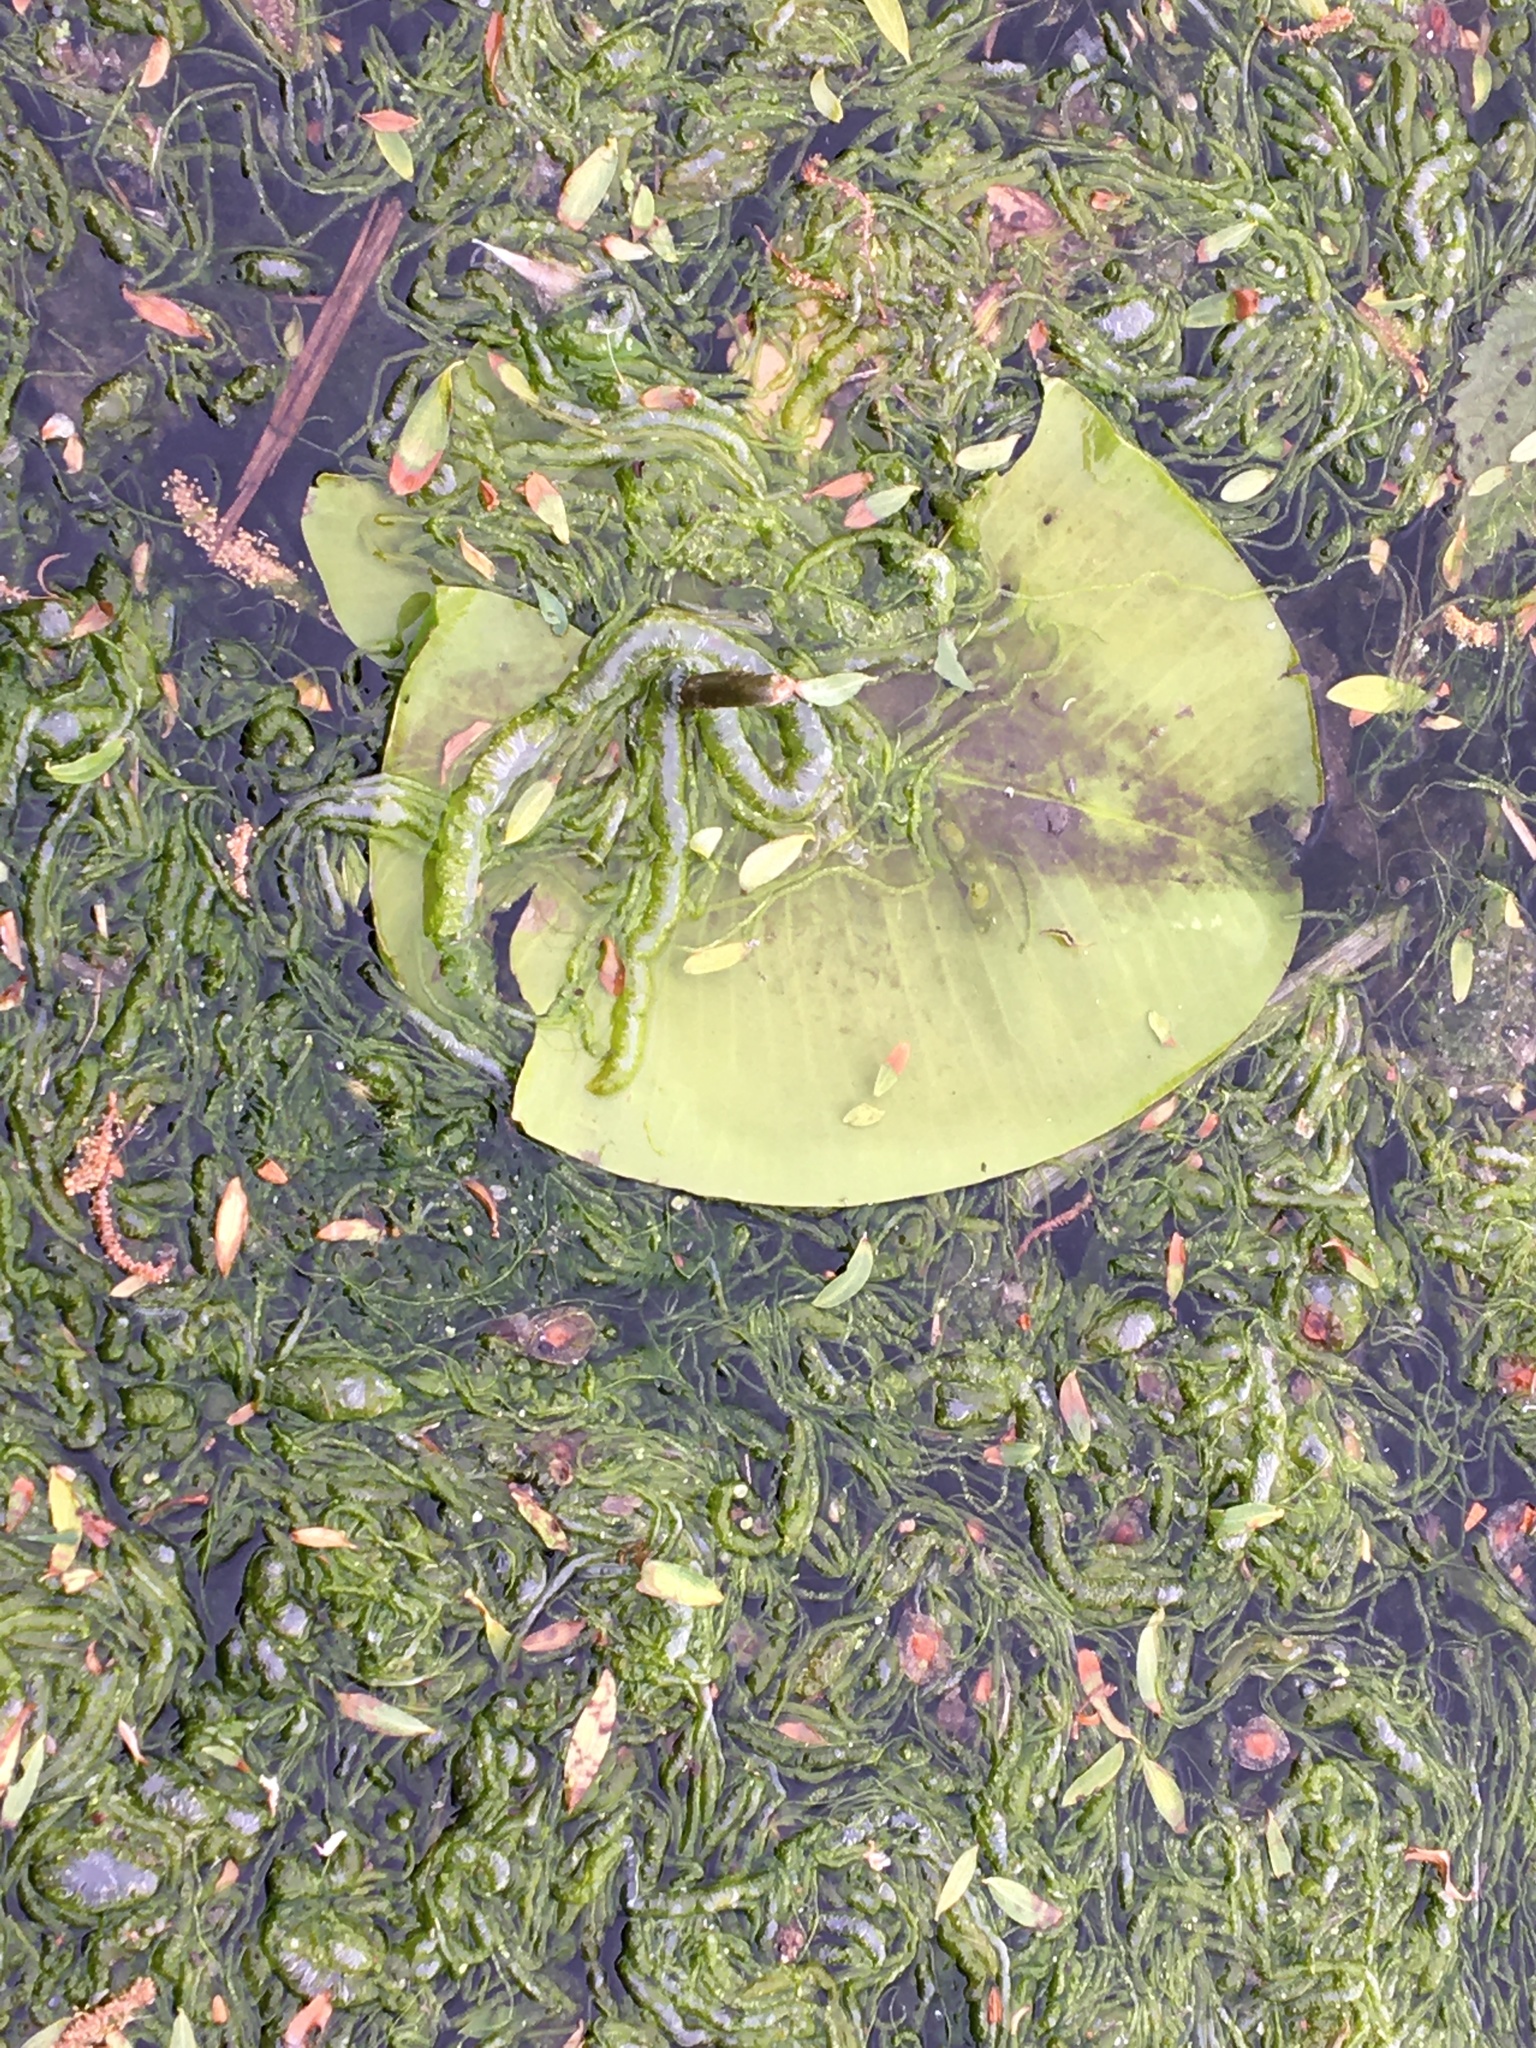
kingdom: Plantae
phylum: Chlorophyta
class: Ulvophyceae
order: Ulvales
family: Ulvaceae
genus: Ulva
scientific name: Ulva intestinalis
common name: Gut weed
